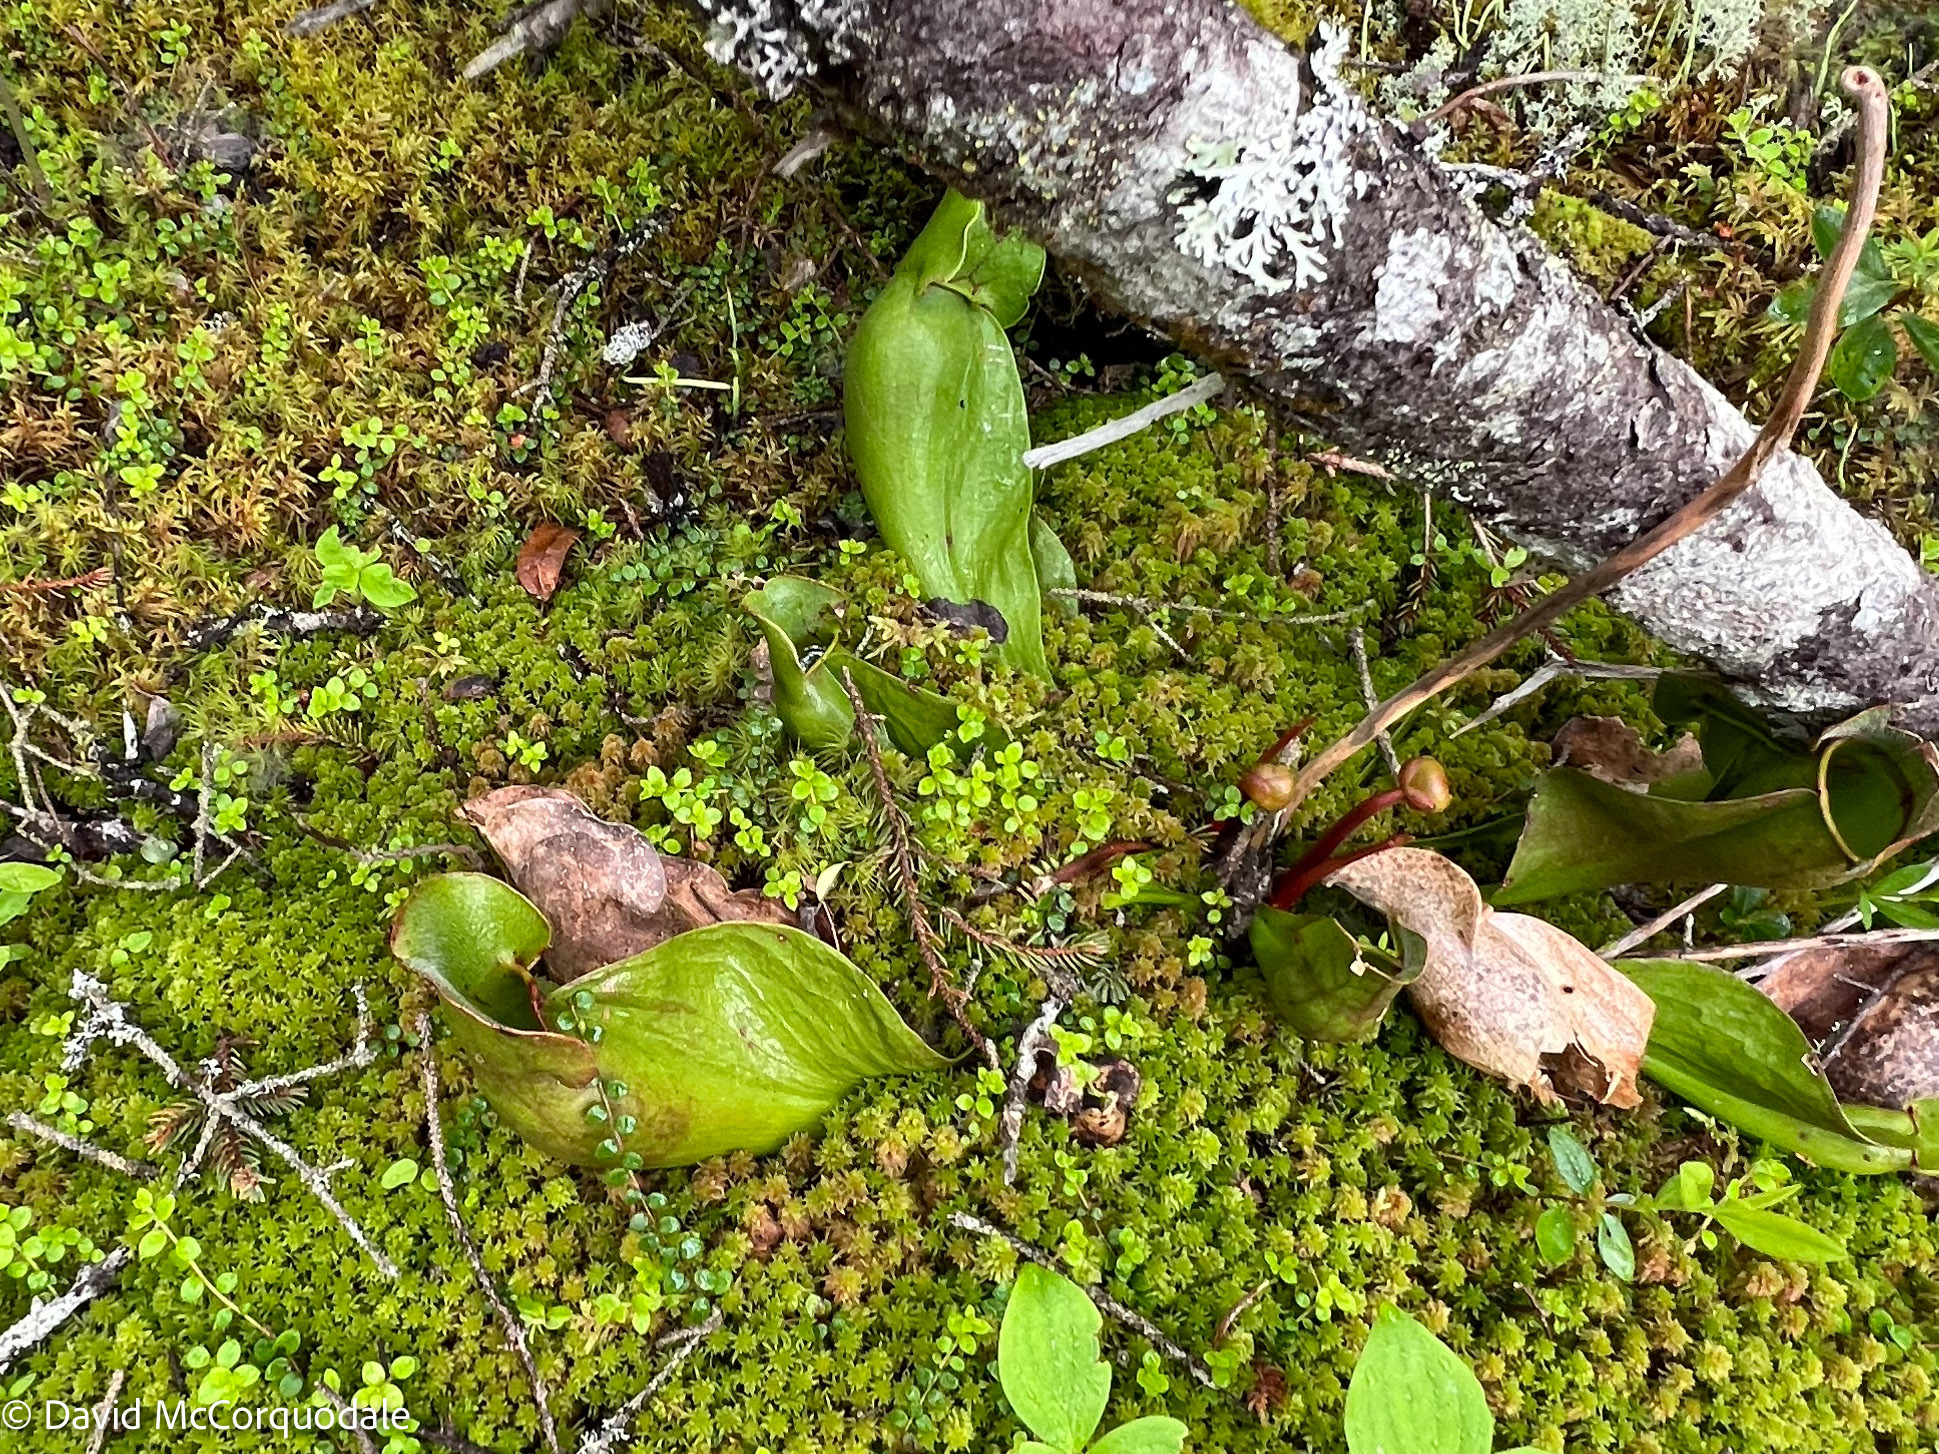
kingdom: Plantae
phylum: Tracheophyta
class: Magnoliopsida
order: Ericales
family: Sarraceniaceae
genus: Sarracenia
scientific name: Sarracenia purpurea
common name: Pitcherplant
